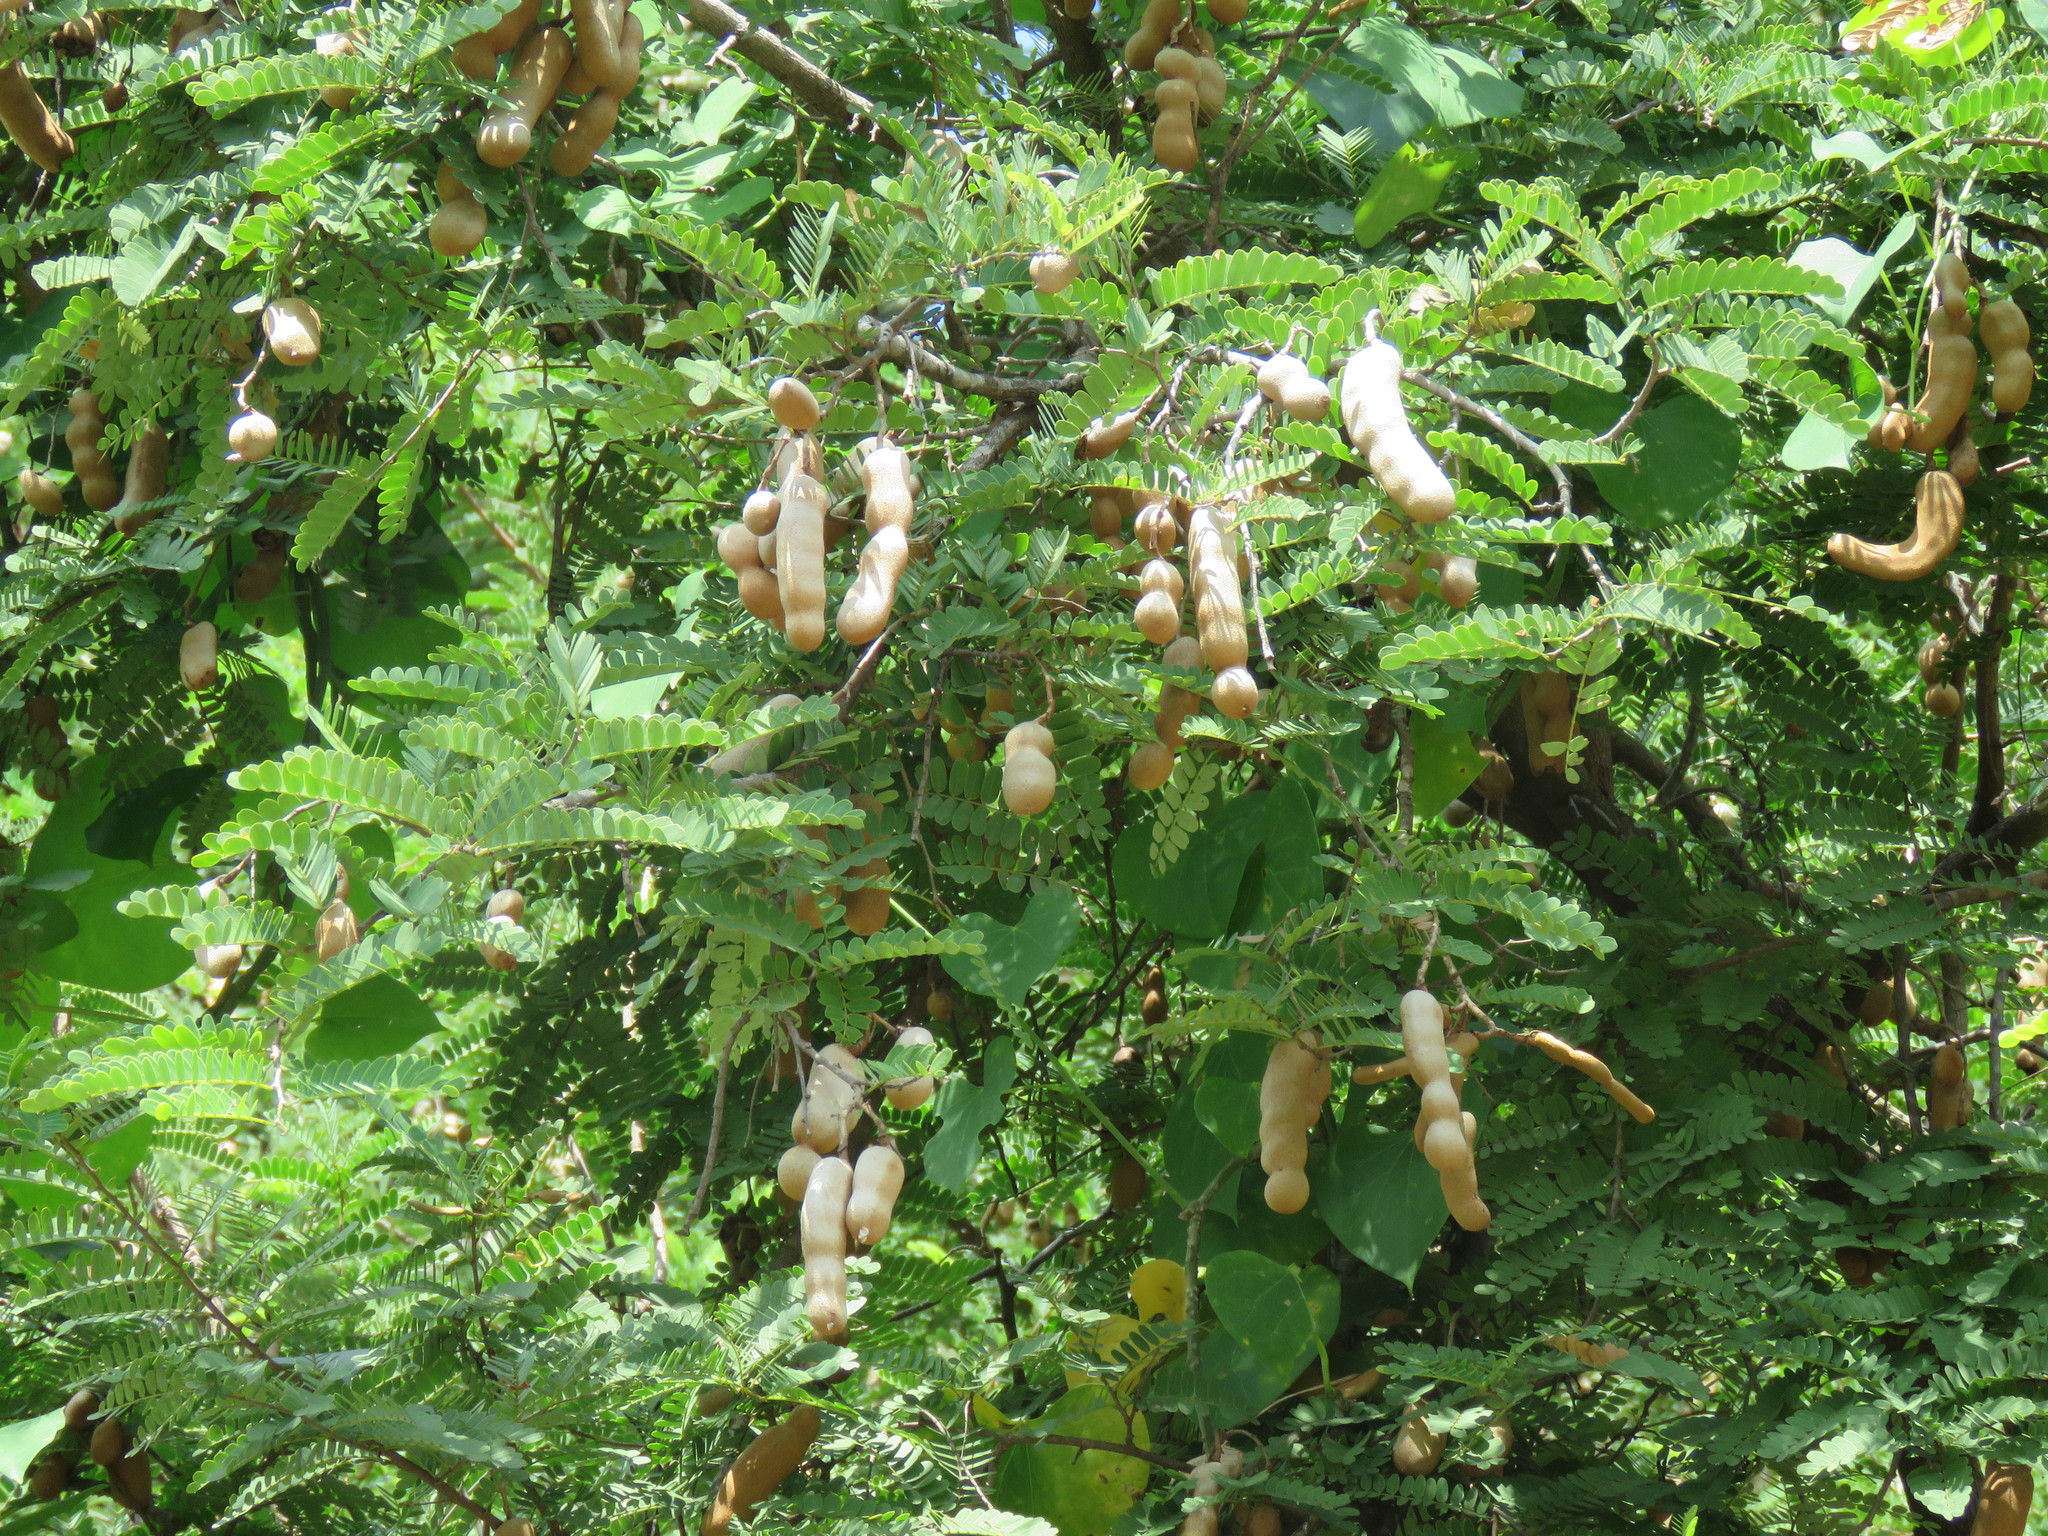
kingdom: Plantae
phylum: Tracheophyta
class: Magnoliopsida
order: Fabales
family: Fabaceae
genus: Tamarindus
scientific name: Tamarindus indica
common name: Tamarind
